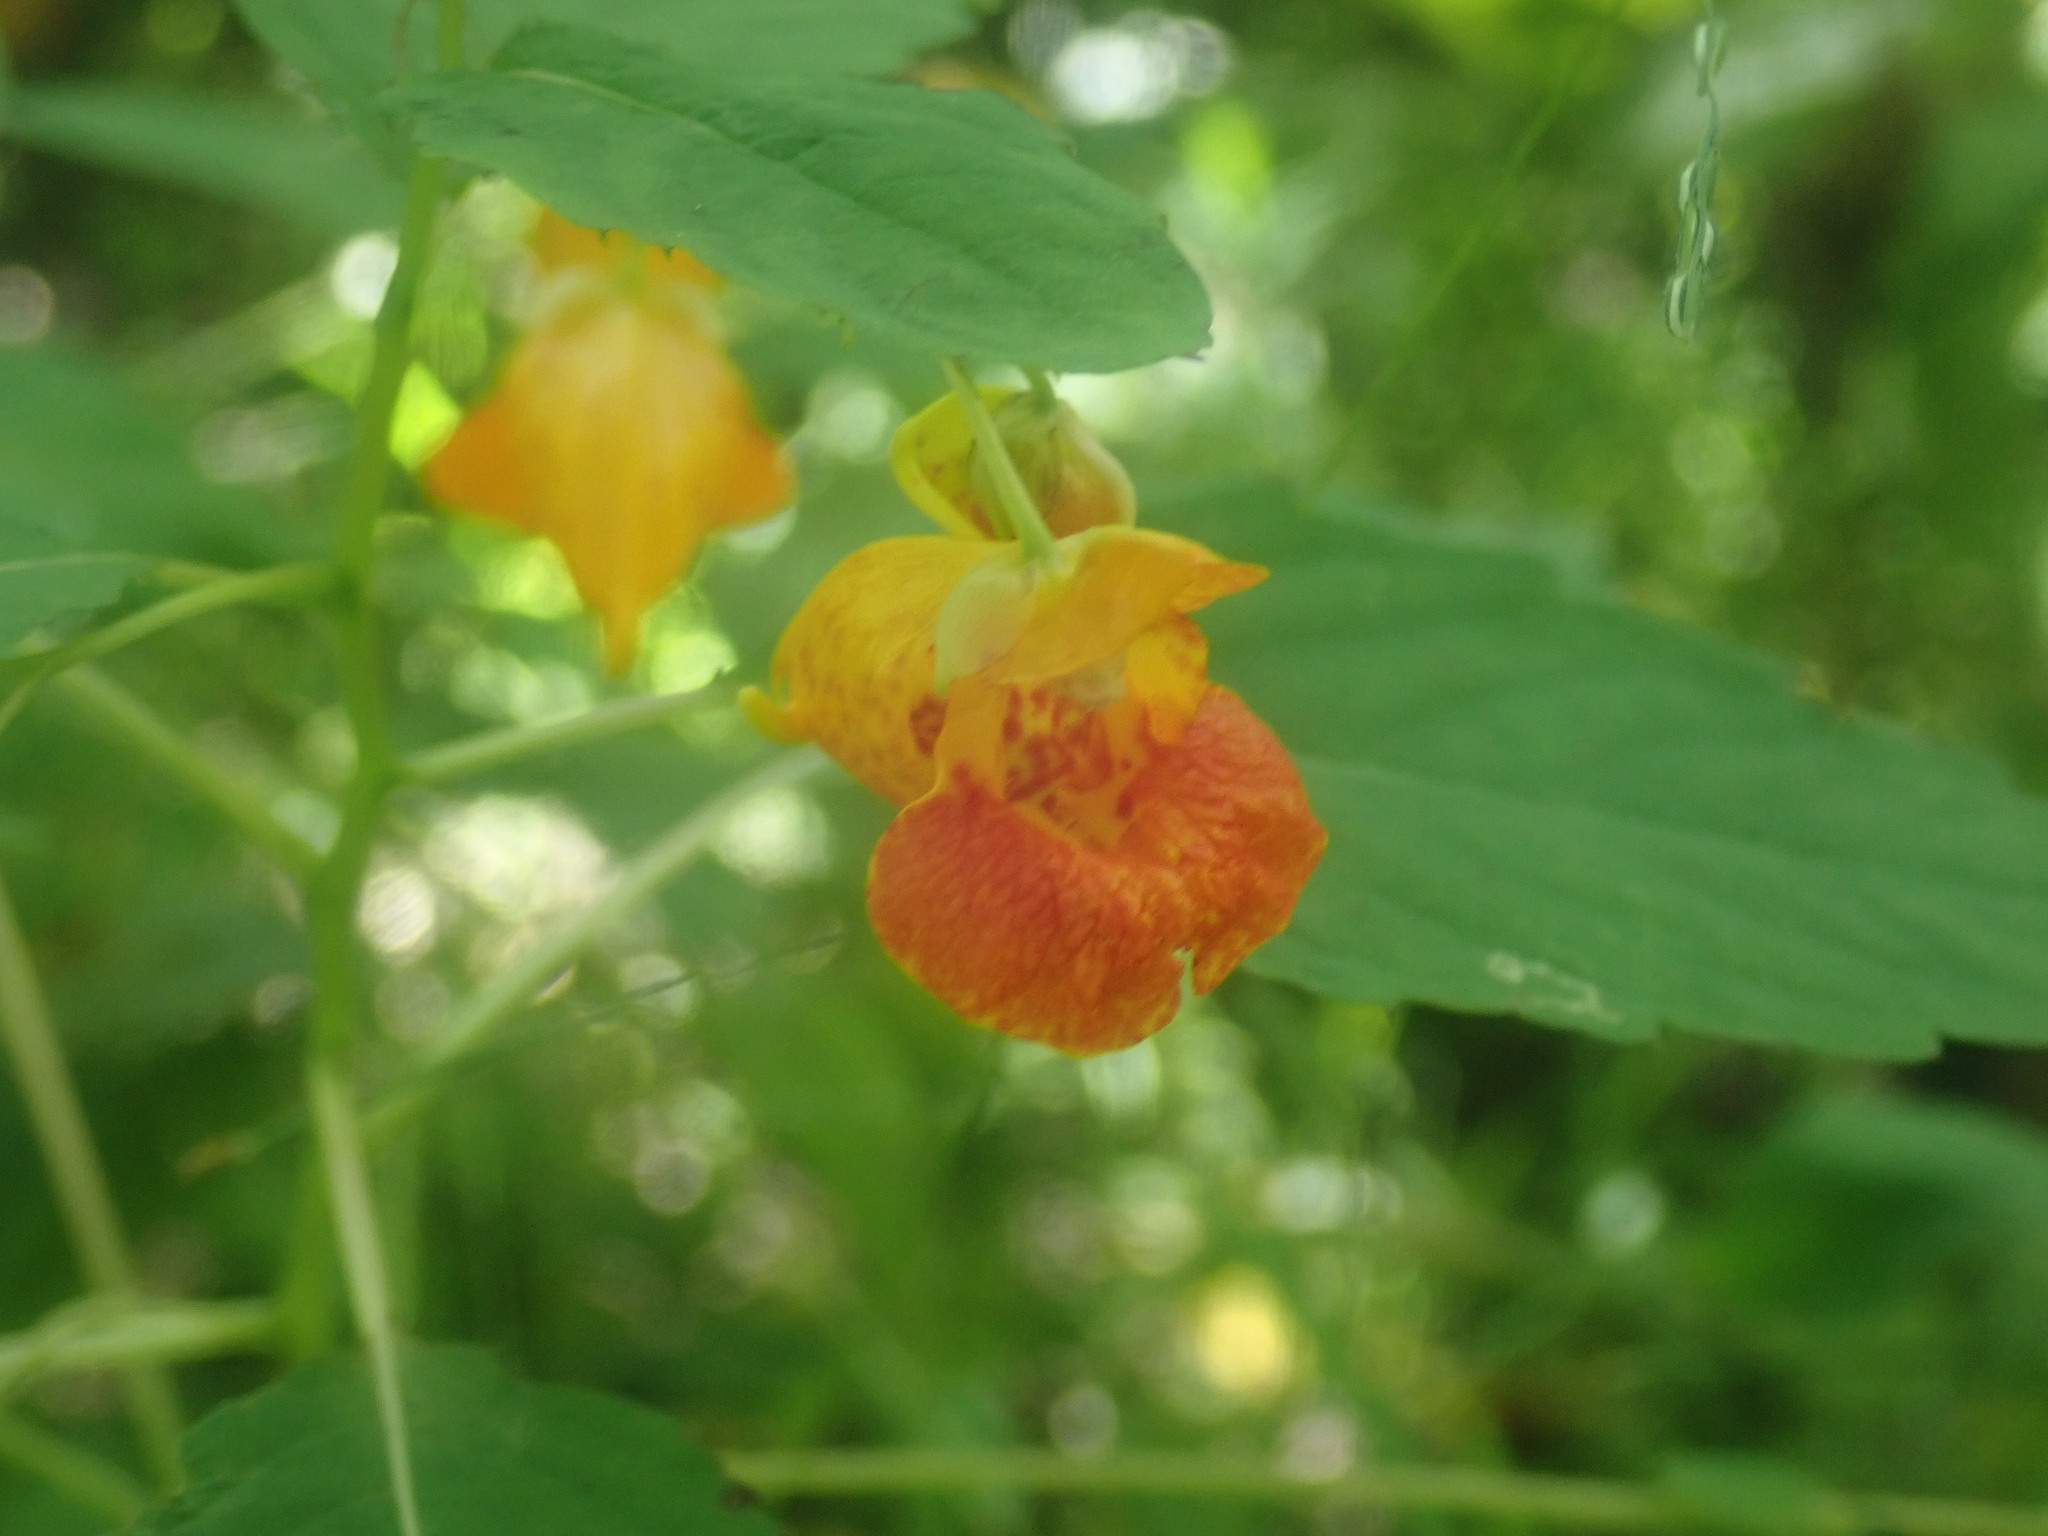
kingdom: Plantae
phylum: Tracheophyta
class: Magnoliopsida
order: Ericales
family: Balsaminaceae
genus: Impatiens
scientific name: Impatiens capensis
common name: Orange balsam
